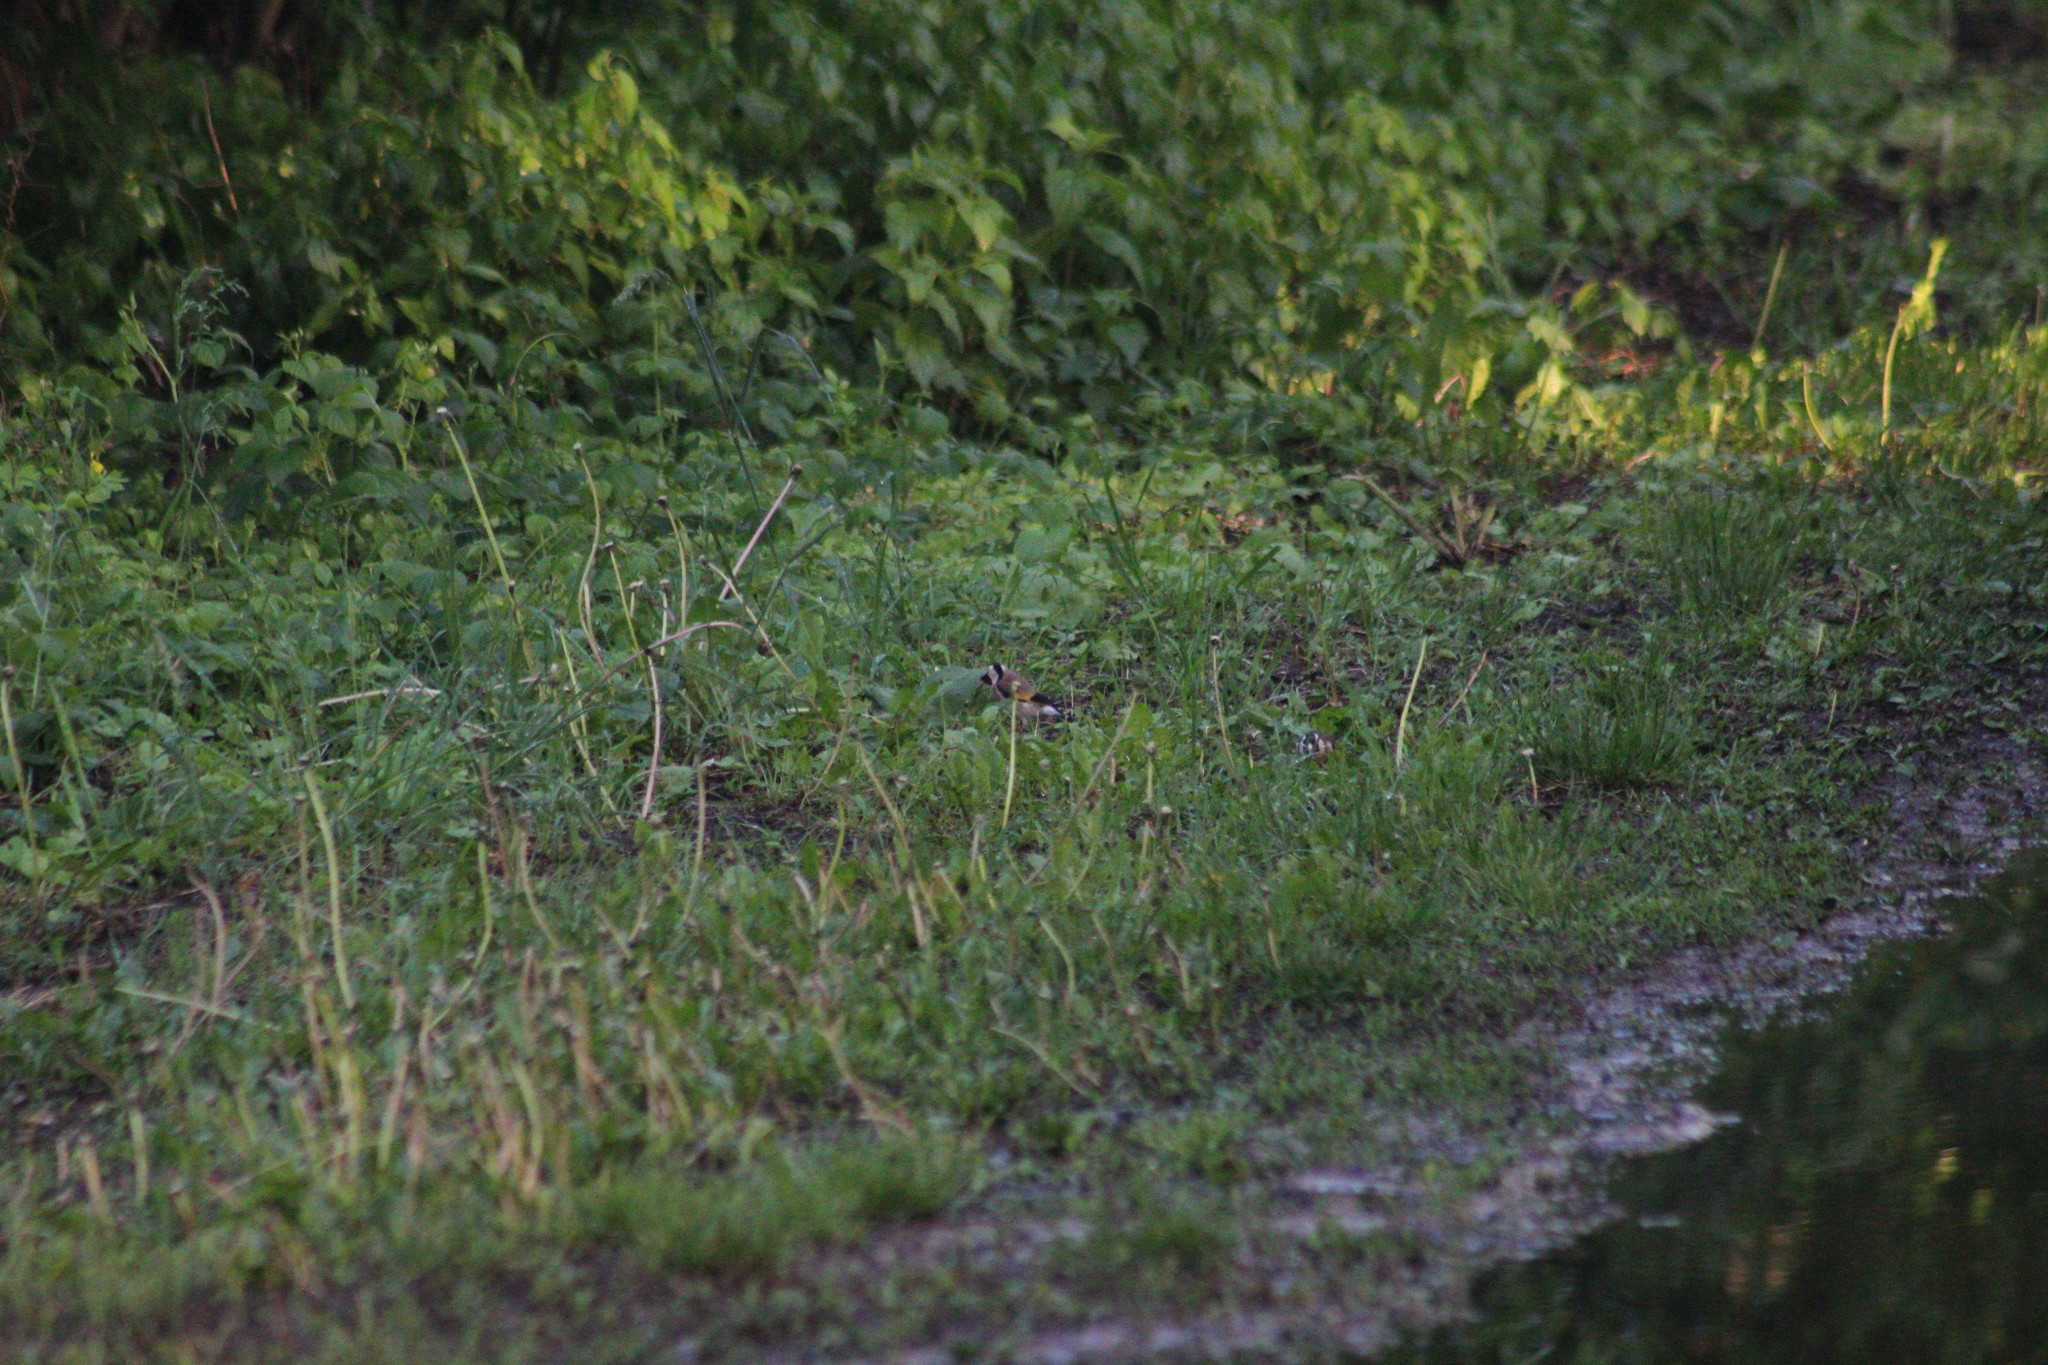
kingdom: Animalia
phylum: Chordata
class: Aves
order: Passeriformes
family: Fringillidae
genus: Carduelis
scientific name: Carduelis carduelis
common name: European goldfinch
